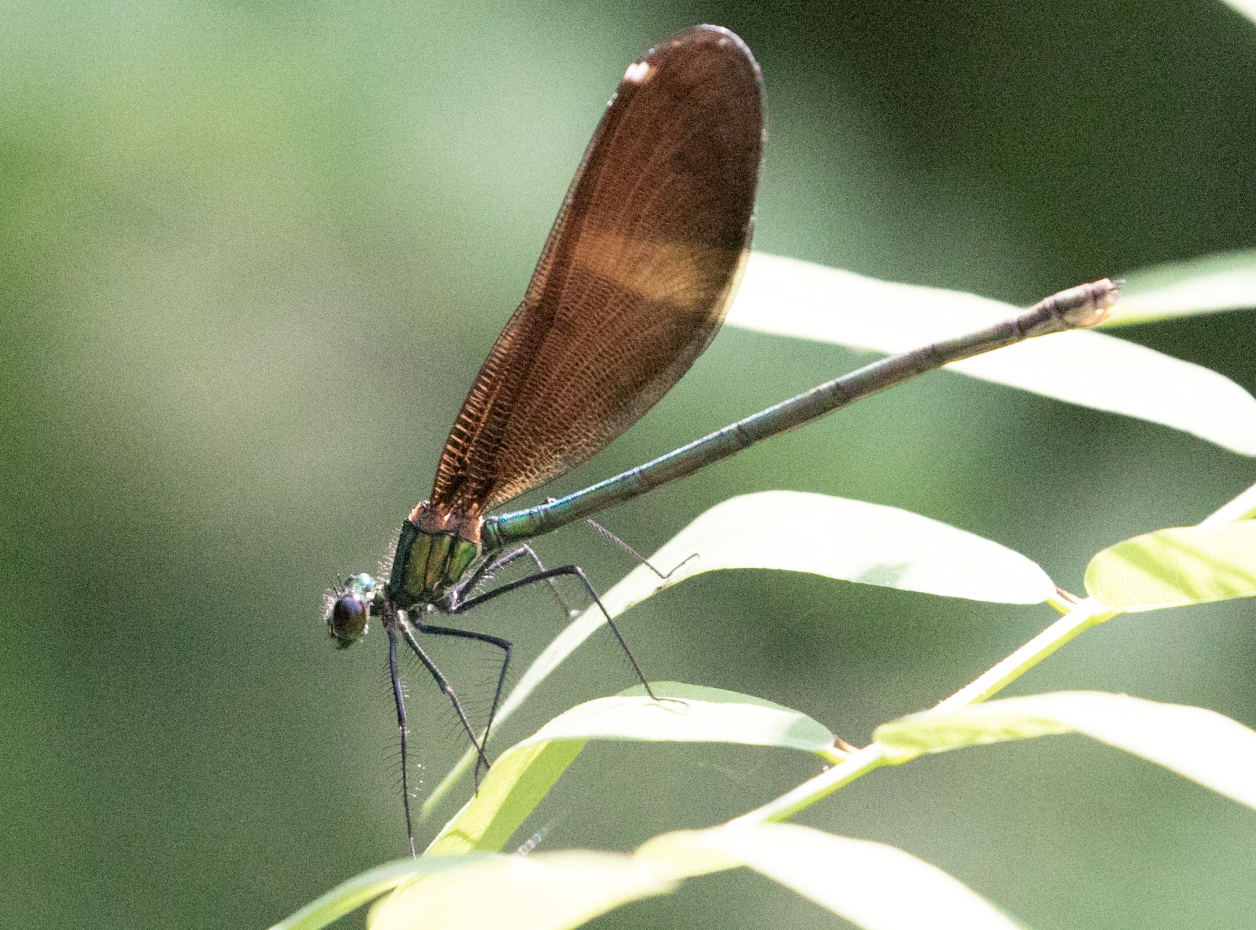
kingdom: Animalia
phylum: Arthropoda
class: Insecta
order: Odonata
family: Calopterygidae
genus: Calopteryx
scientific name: Calopteryx virgo
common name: Beautiful demoiselle
